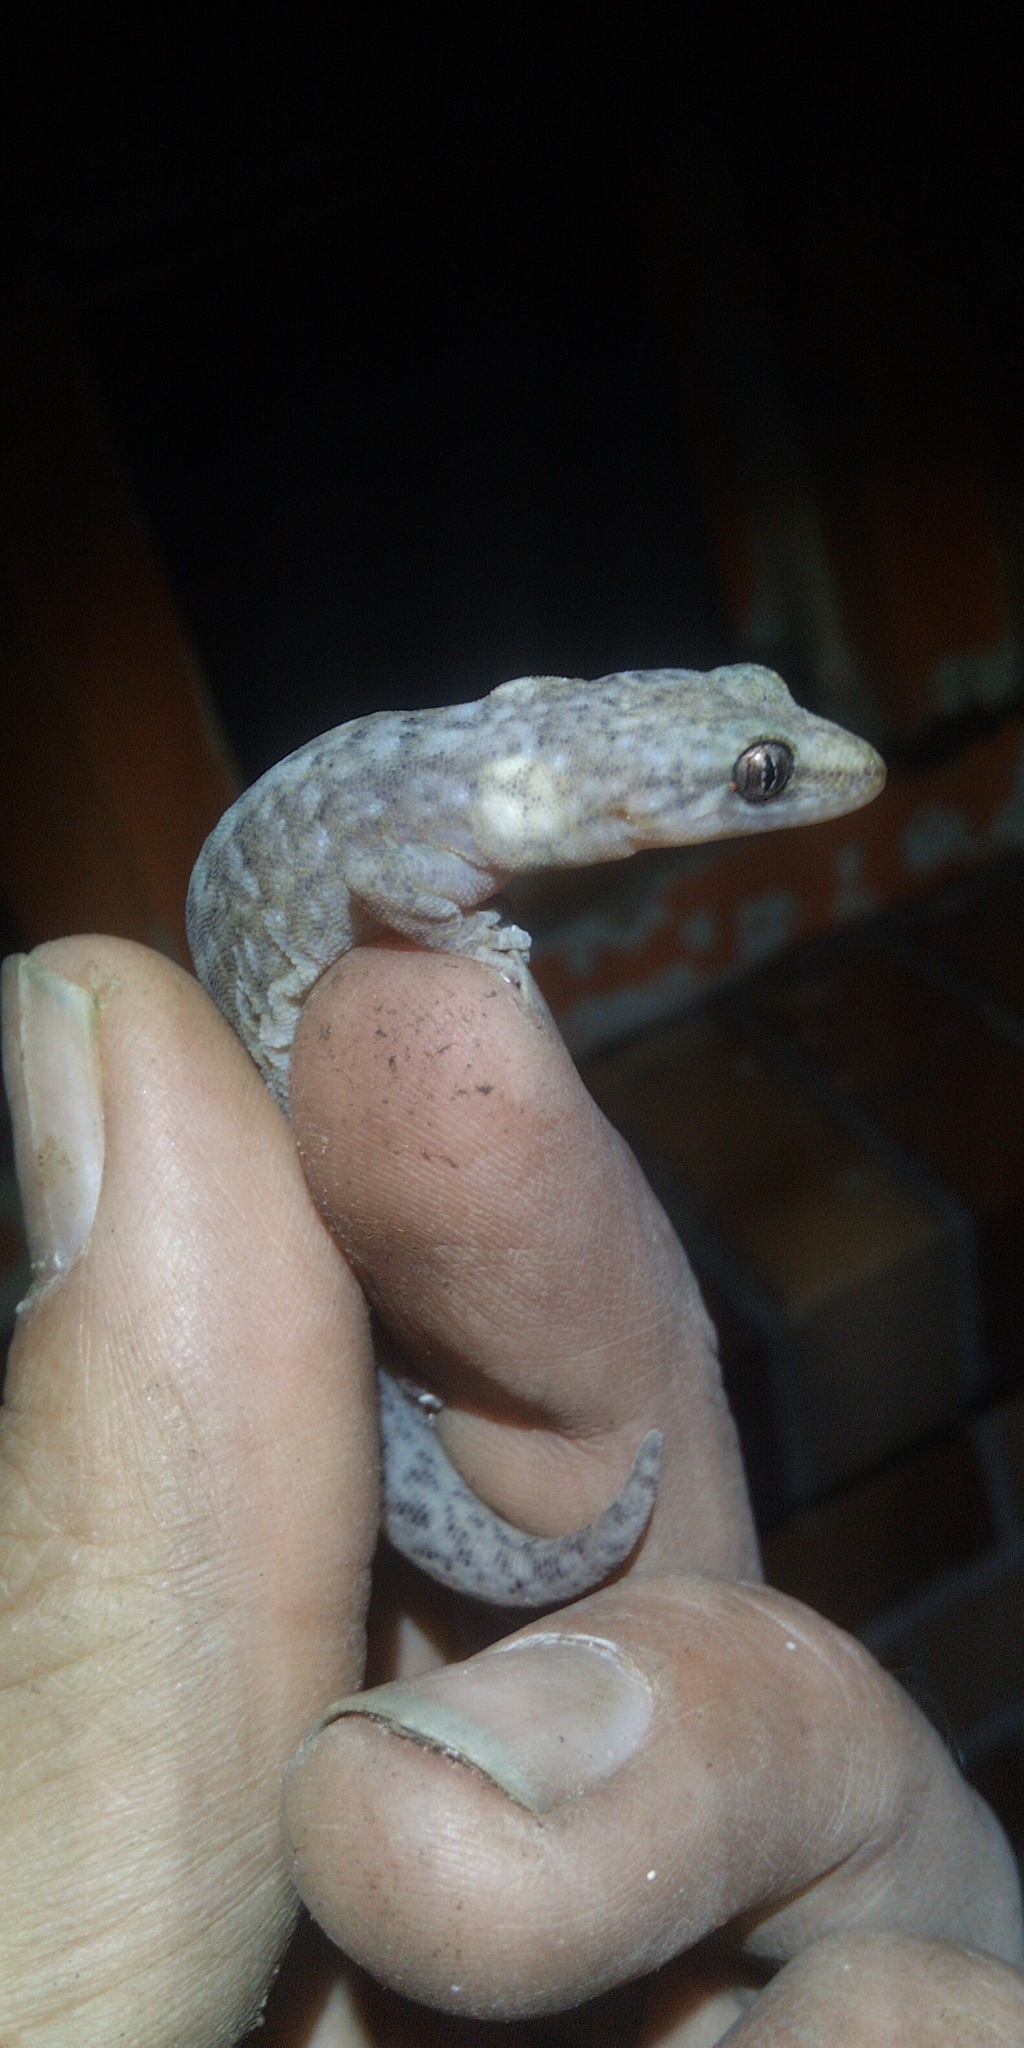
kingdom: Animalia
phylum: Chordata
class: Squamata
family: Gekkonidae
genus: Afrogecko
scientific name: Afrogecko porphyreus
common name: Marbled leaf-toed gecko
